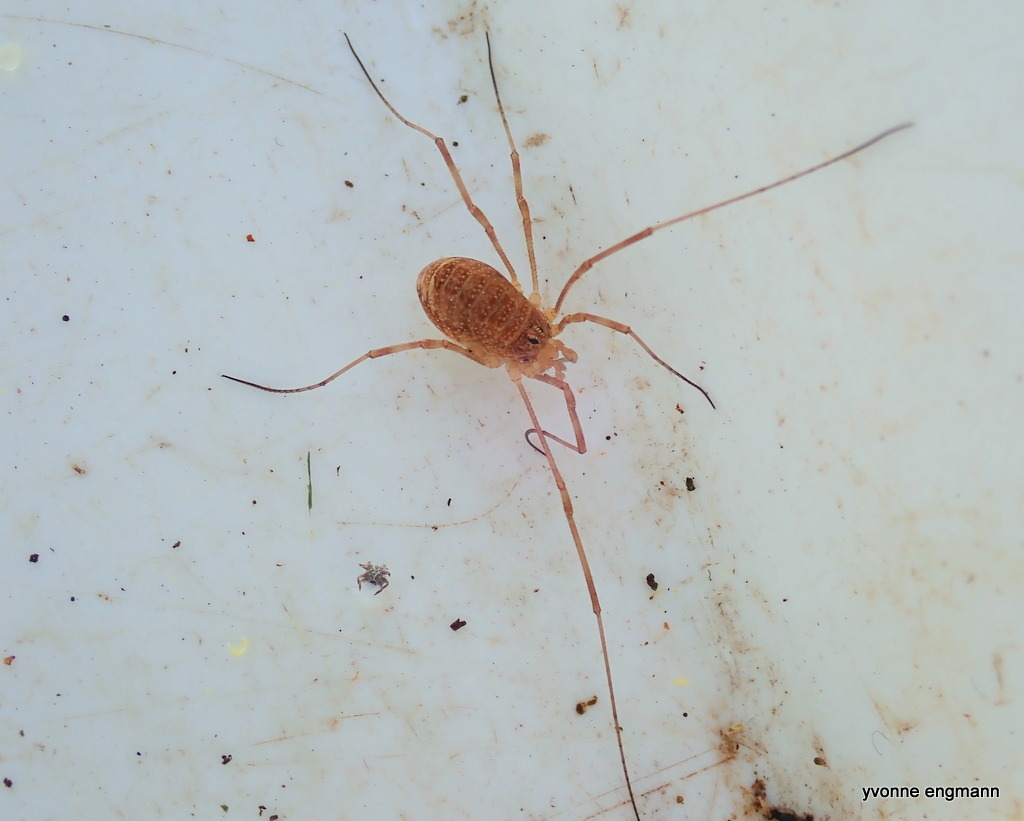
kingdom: Animalia
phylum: Arthropoda
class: Arachnida
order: Opiliones
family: Phalangiidae
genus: Rilaena
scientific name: Rilaena triangularis
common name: Spring harvestman
